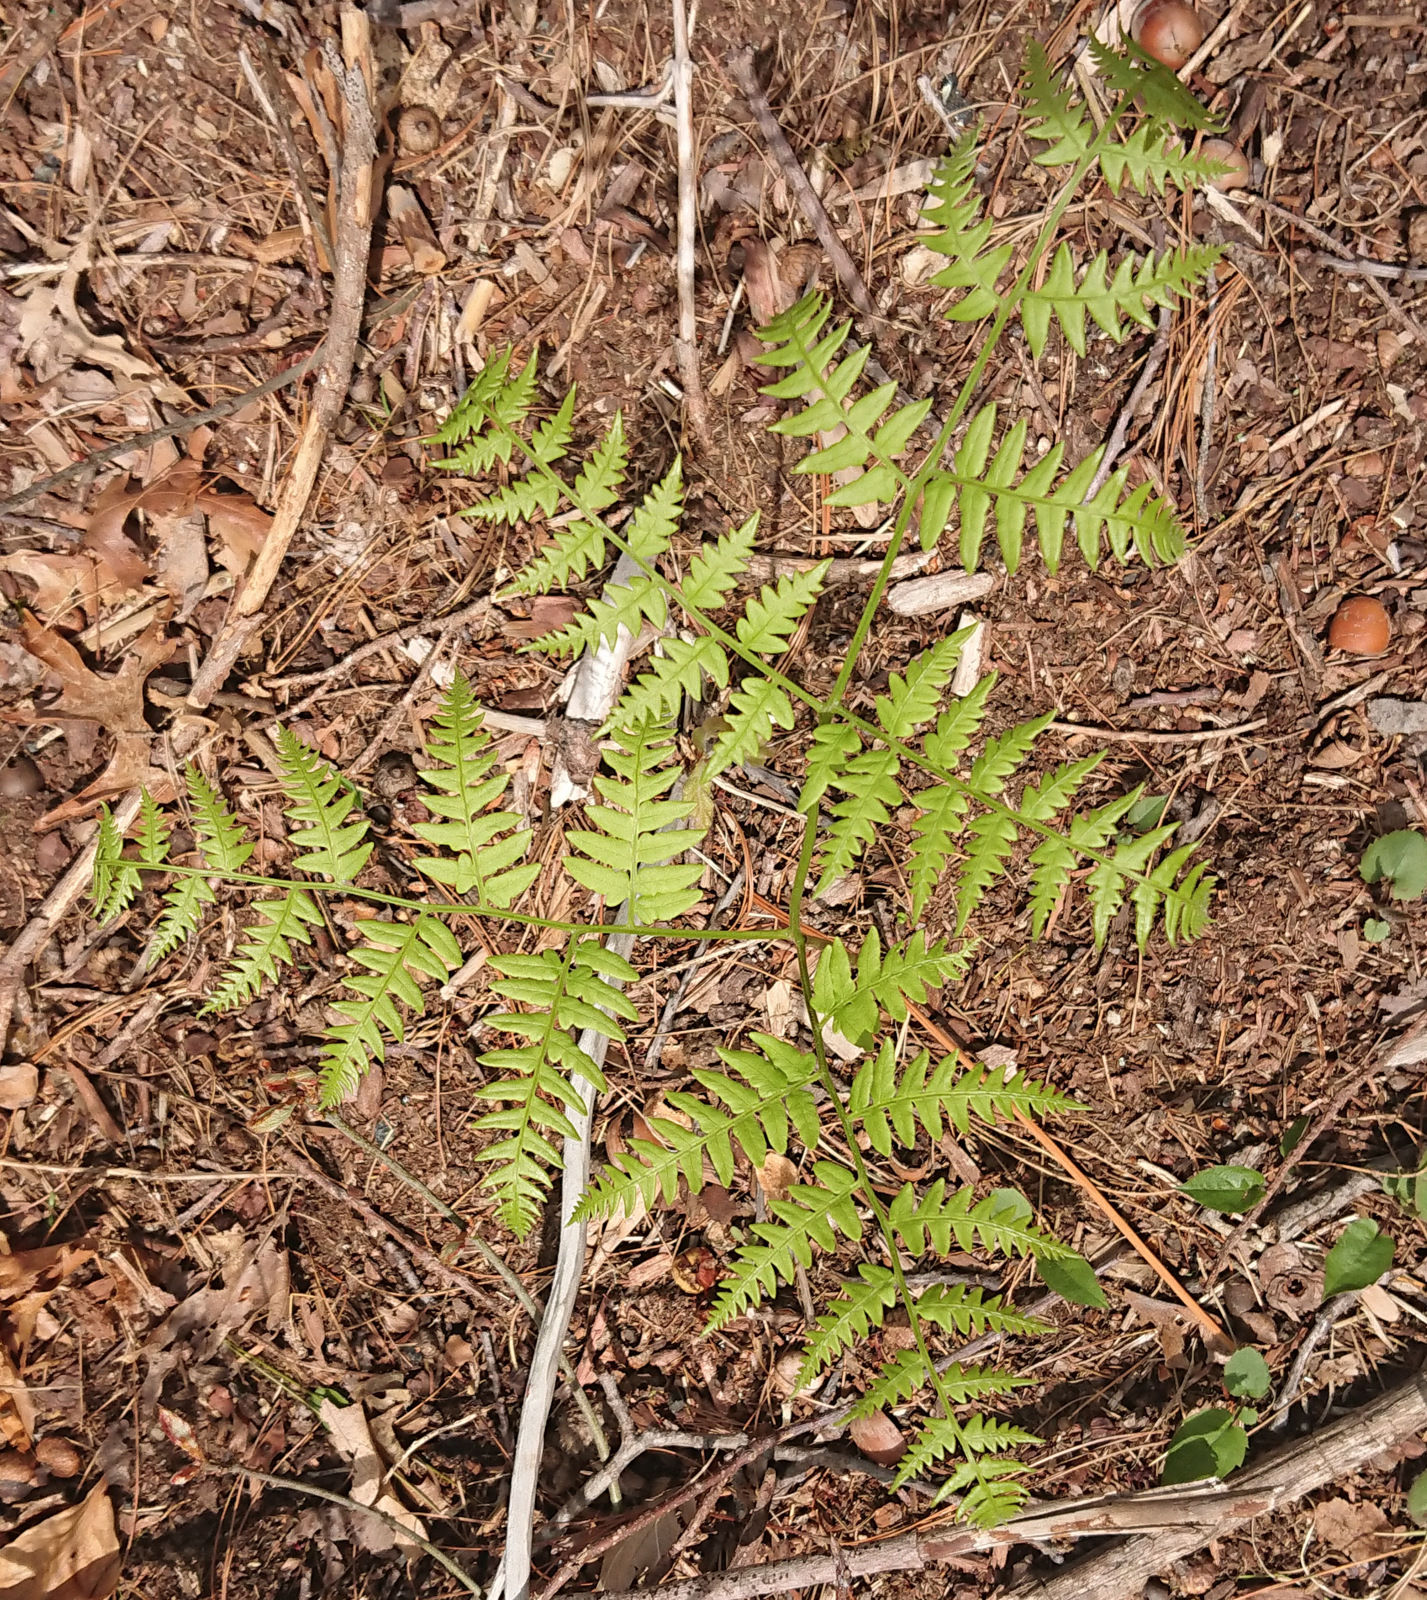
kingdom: Plantae
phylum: Tracheophyta
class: Polypodiopsida
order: Polypodiales
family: Dennstaedtiaceae
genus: Pteridium
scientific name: Pteridium aquilinum
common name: Bracken
